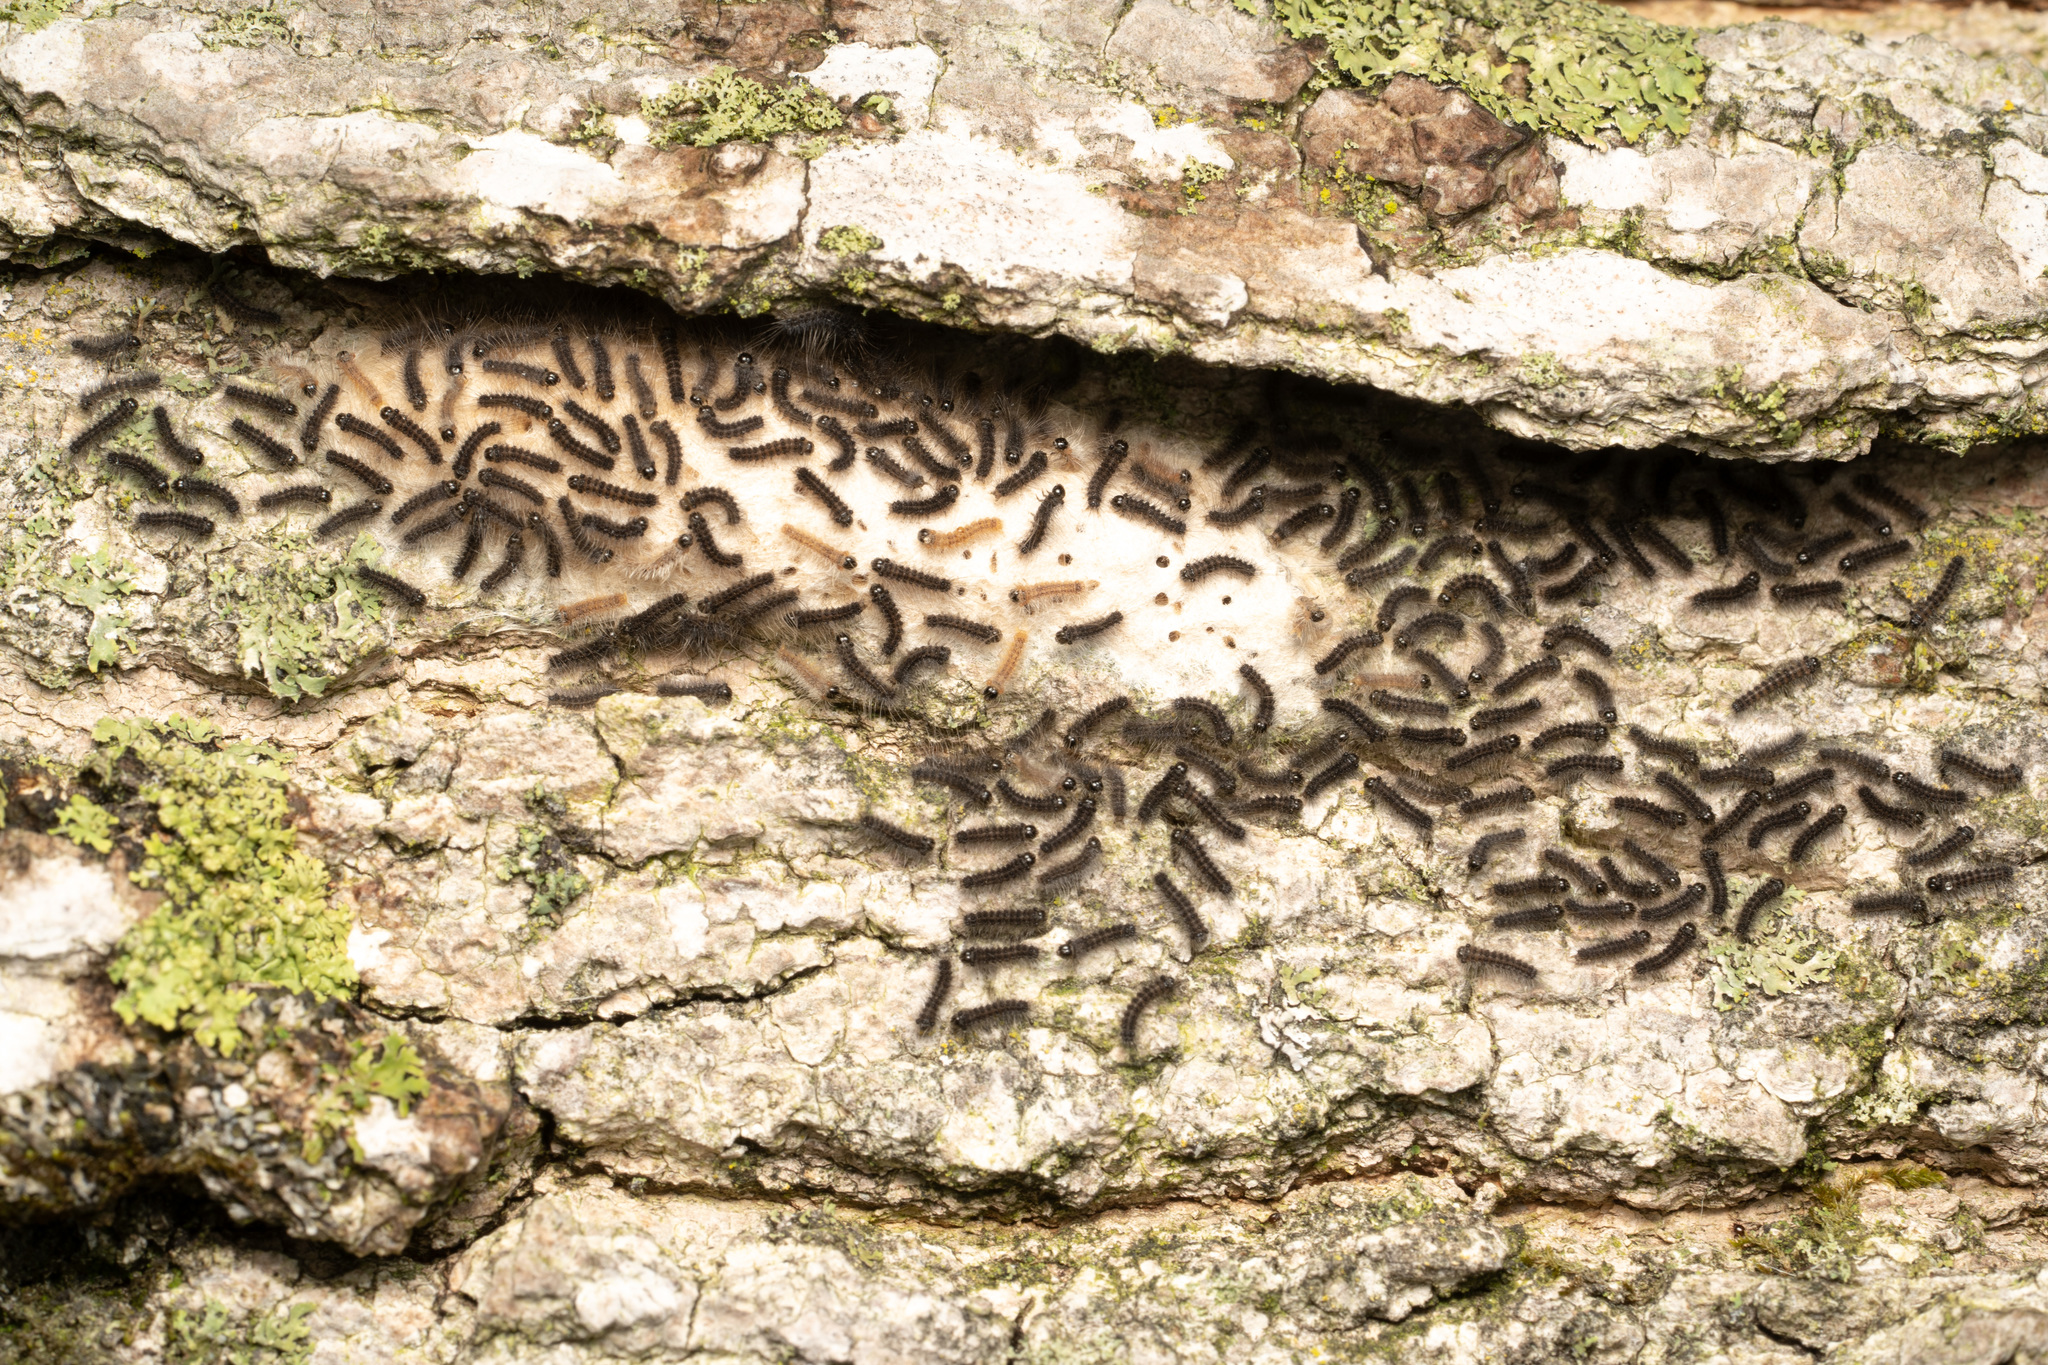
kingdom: Animalia
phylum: Arthropoda
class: Insecta
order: Lepidoptera
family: Erebidae
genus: Lymantria
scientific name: Lymantria dispar
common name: Gypsy moth
